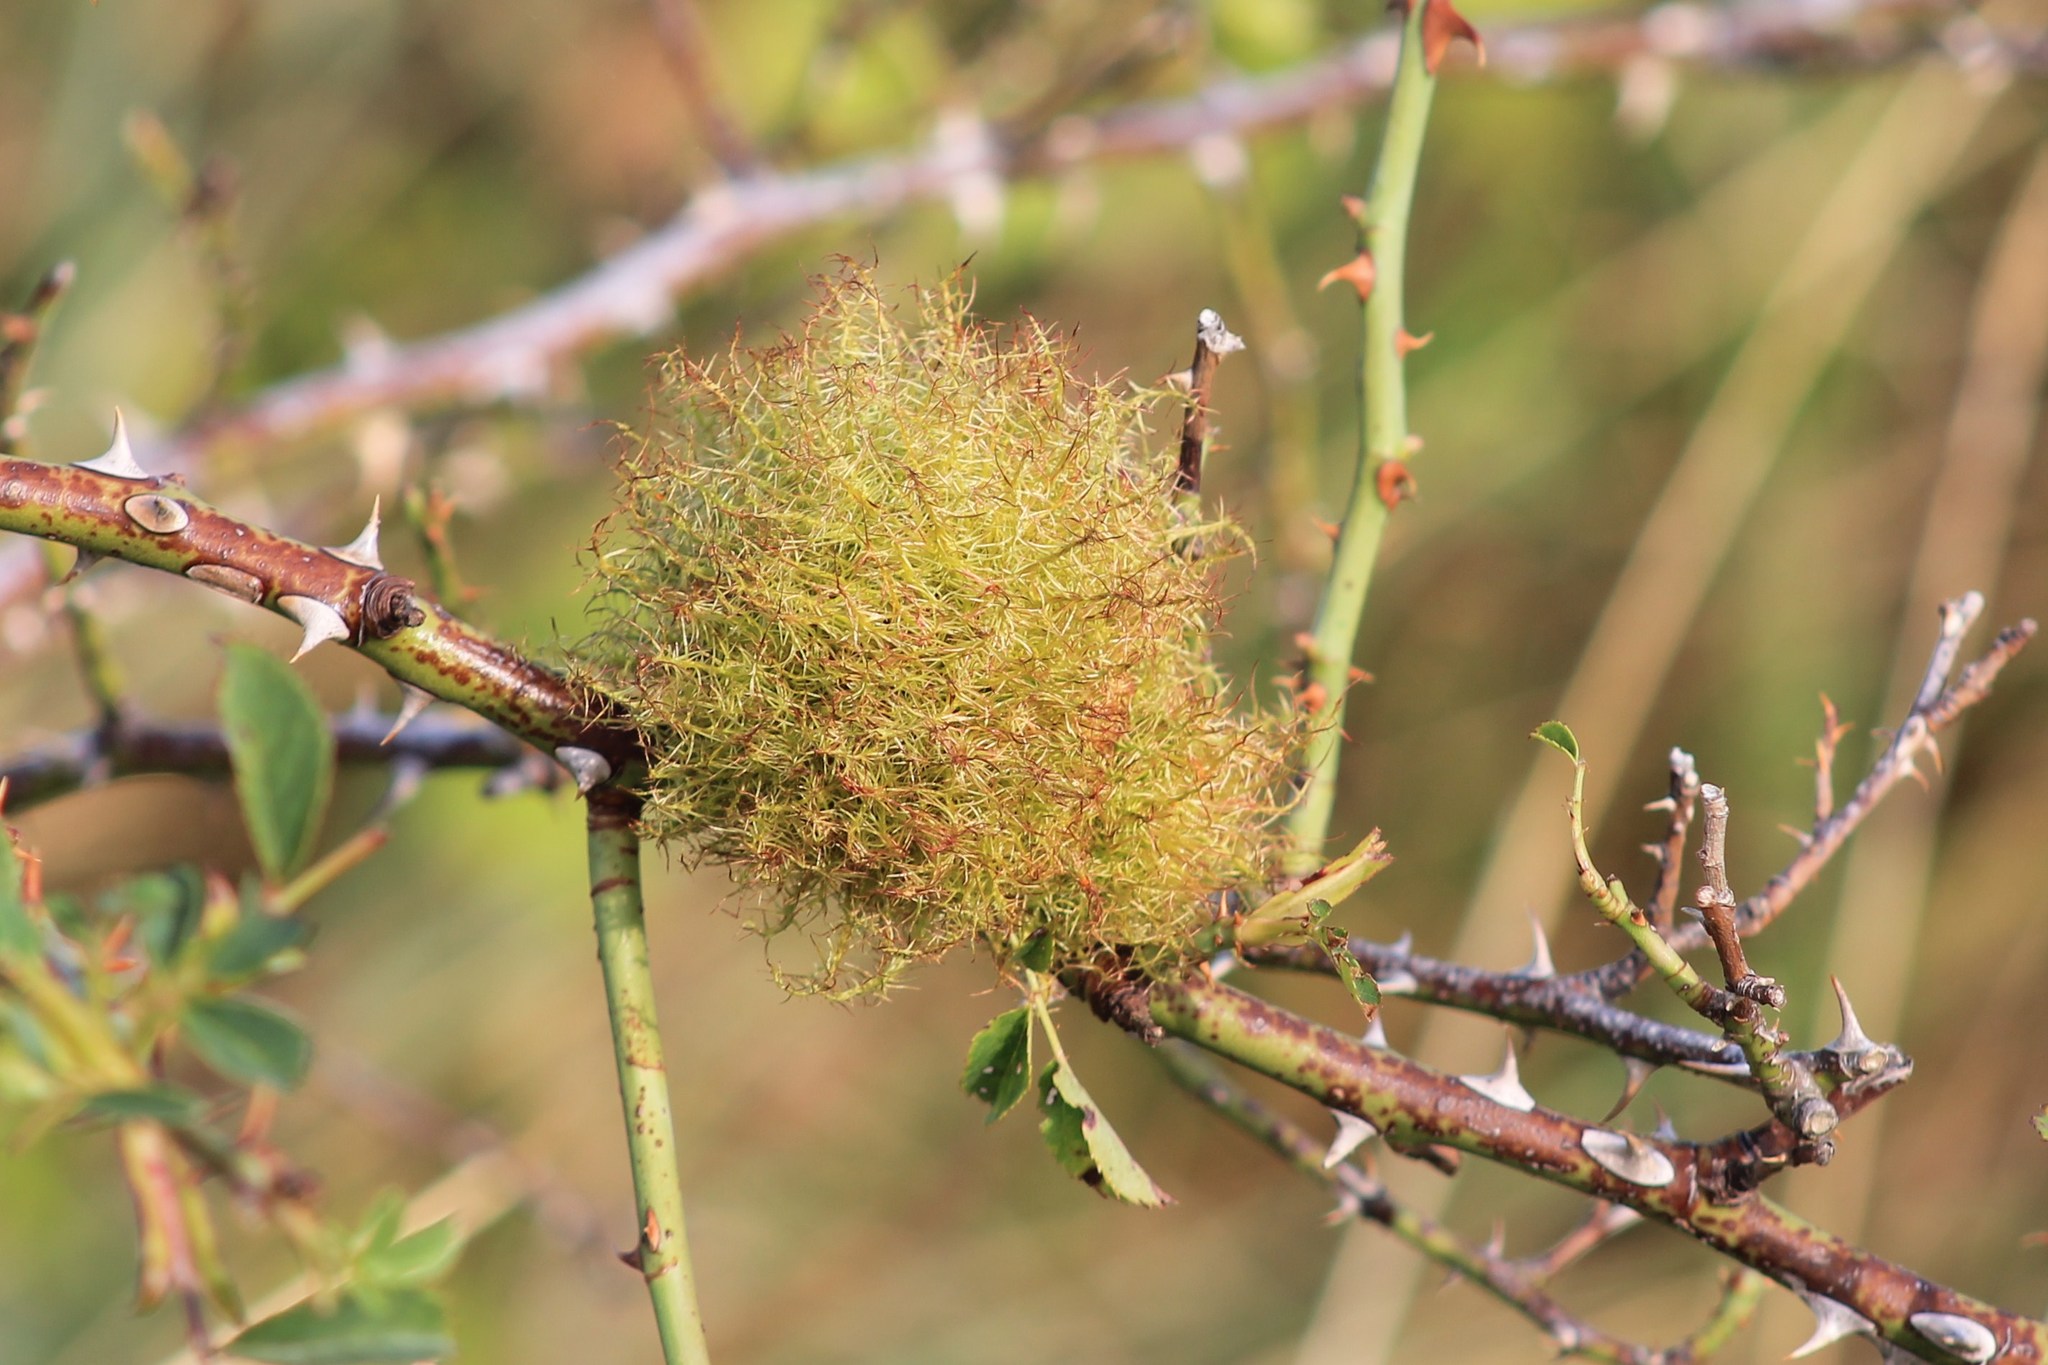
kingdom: Animalia
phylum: Arthropoda
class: Insecta
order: Hymenoptera
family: Cynipidae
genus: Diplolepis
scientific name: Diplolepis rosae
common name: Bedeguar gall
